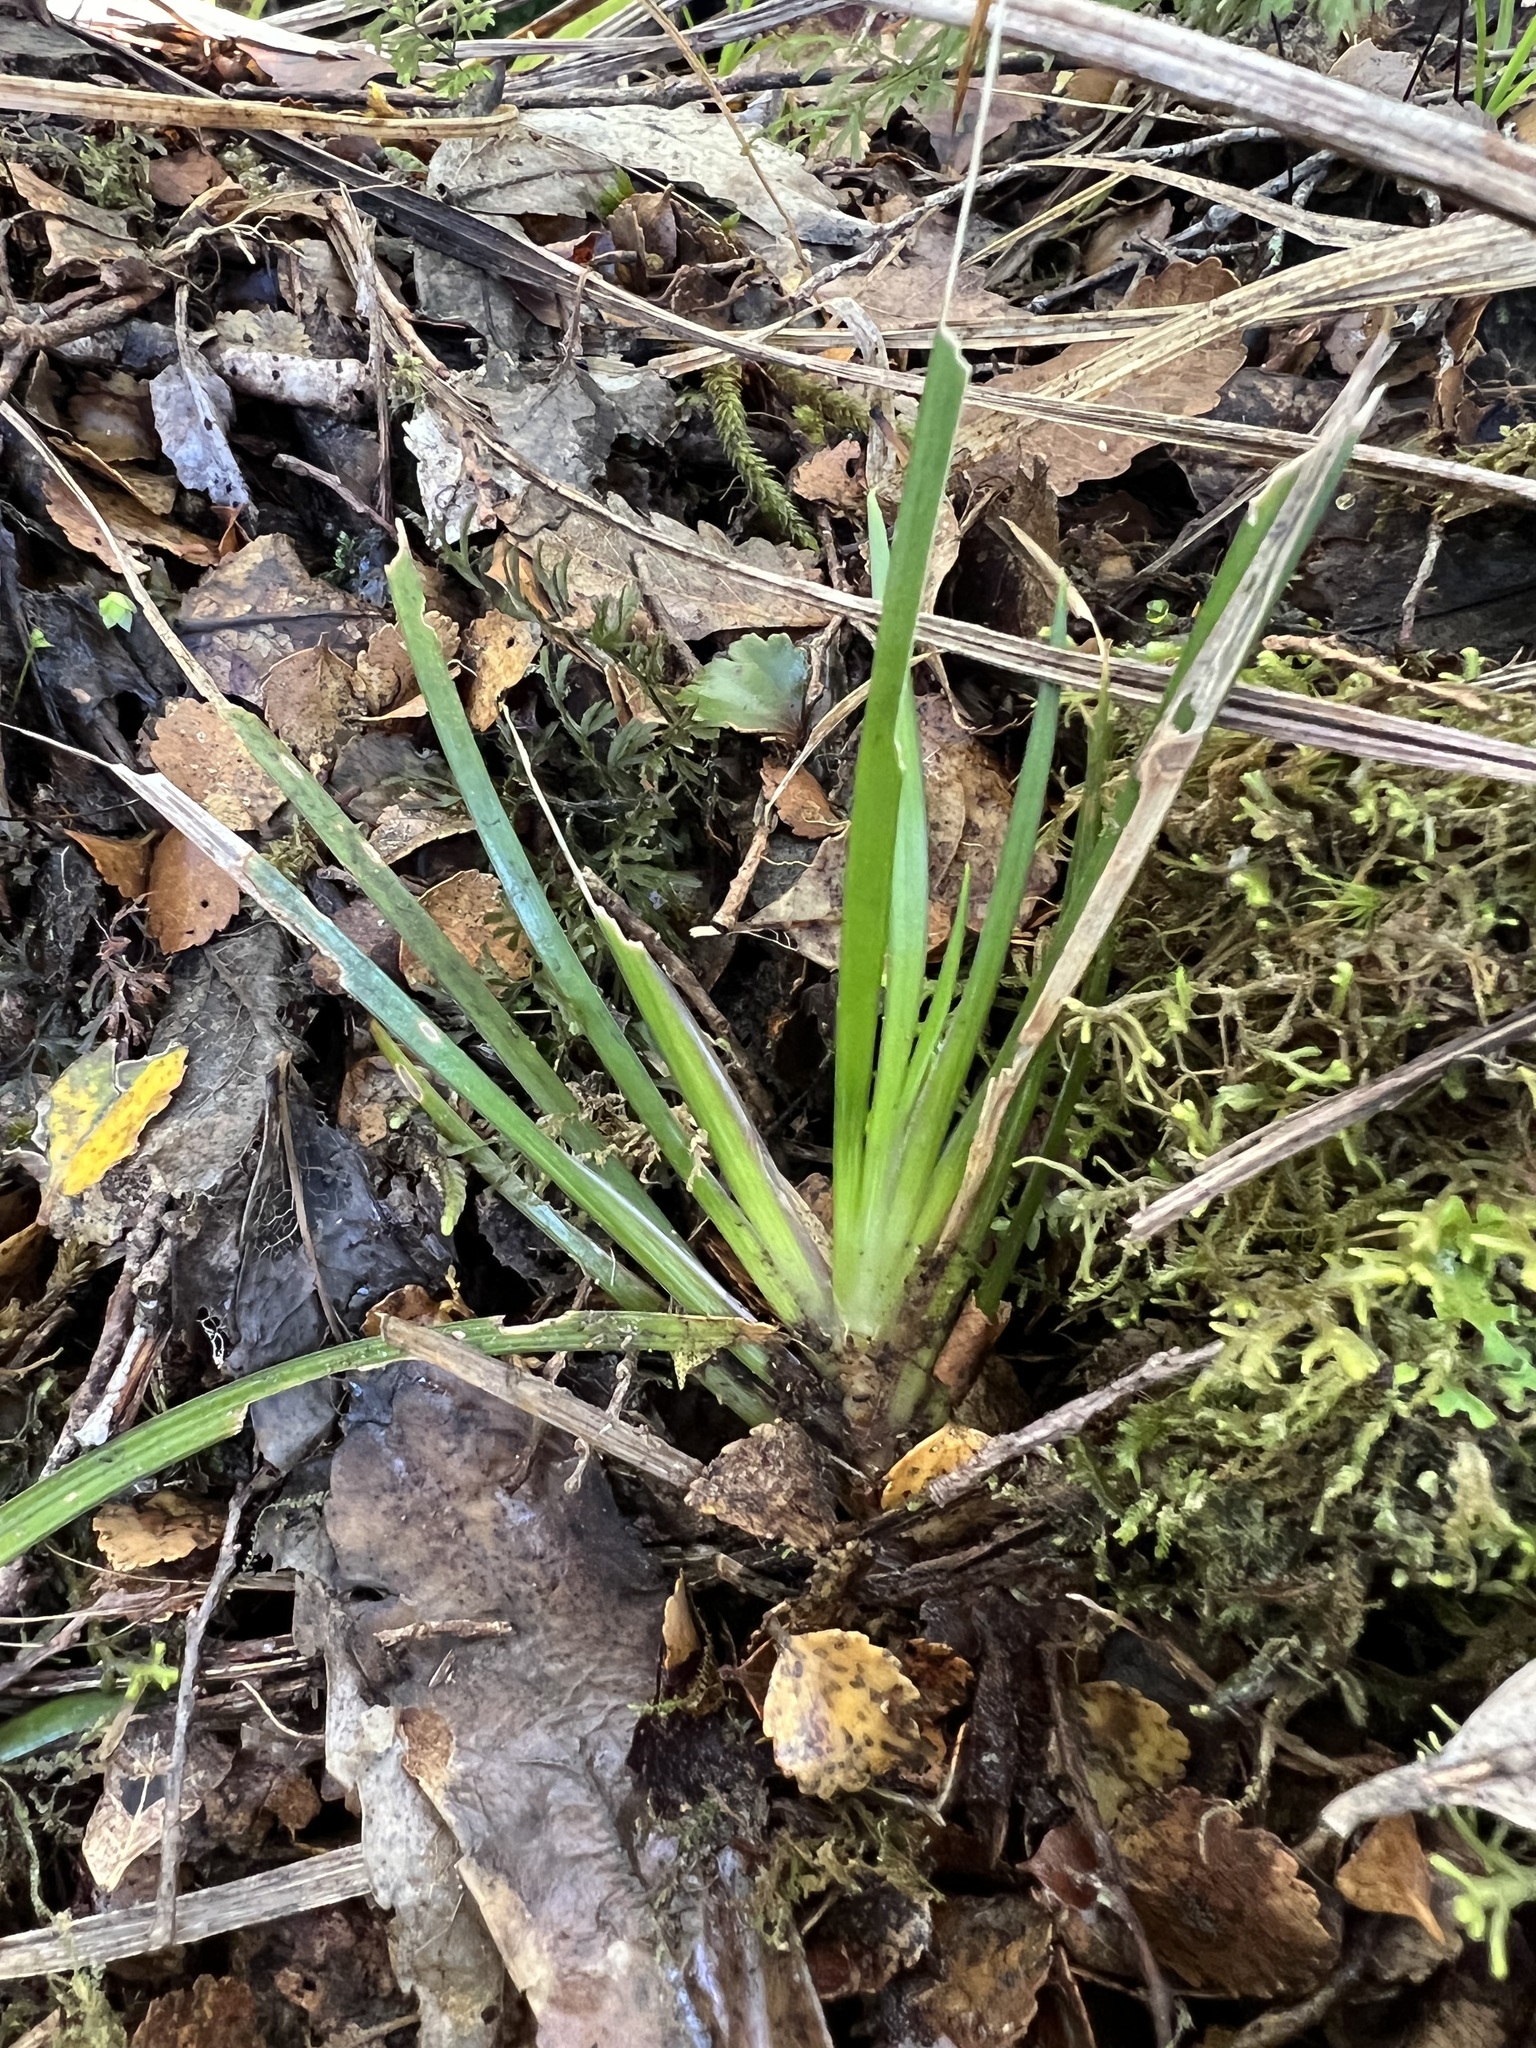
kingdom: Plantae
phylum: Tracheophyta
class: Liliopsida
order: Asparagales
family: Iridaceae
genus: Libertia
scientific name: Libertia micrantha
